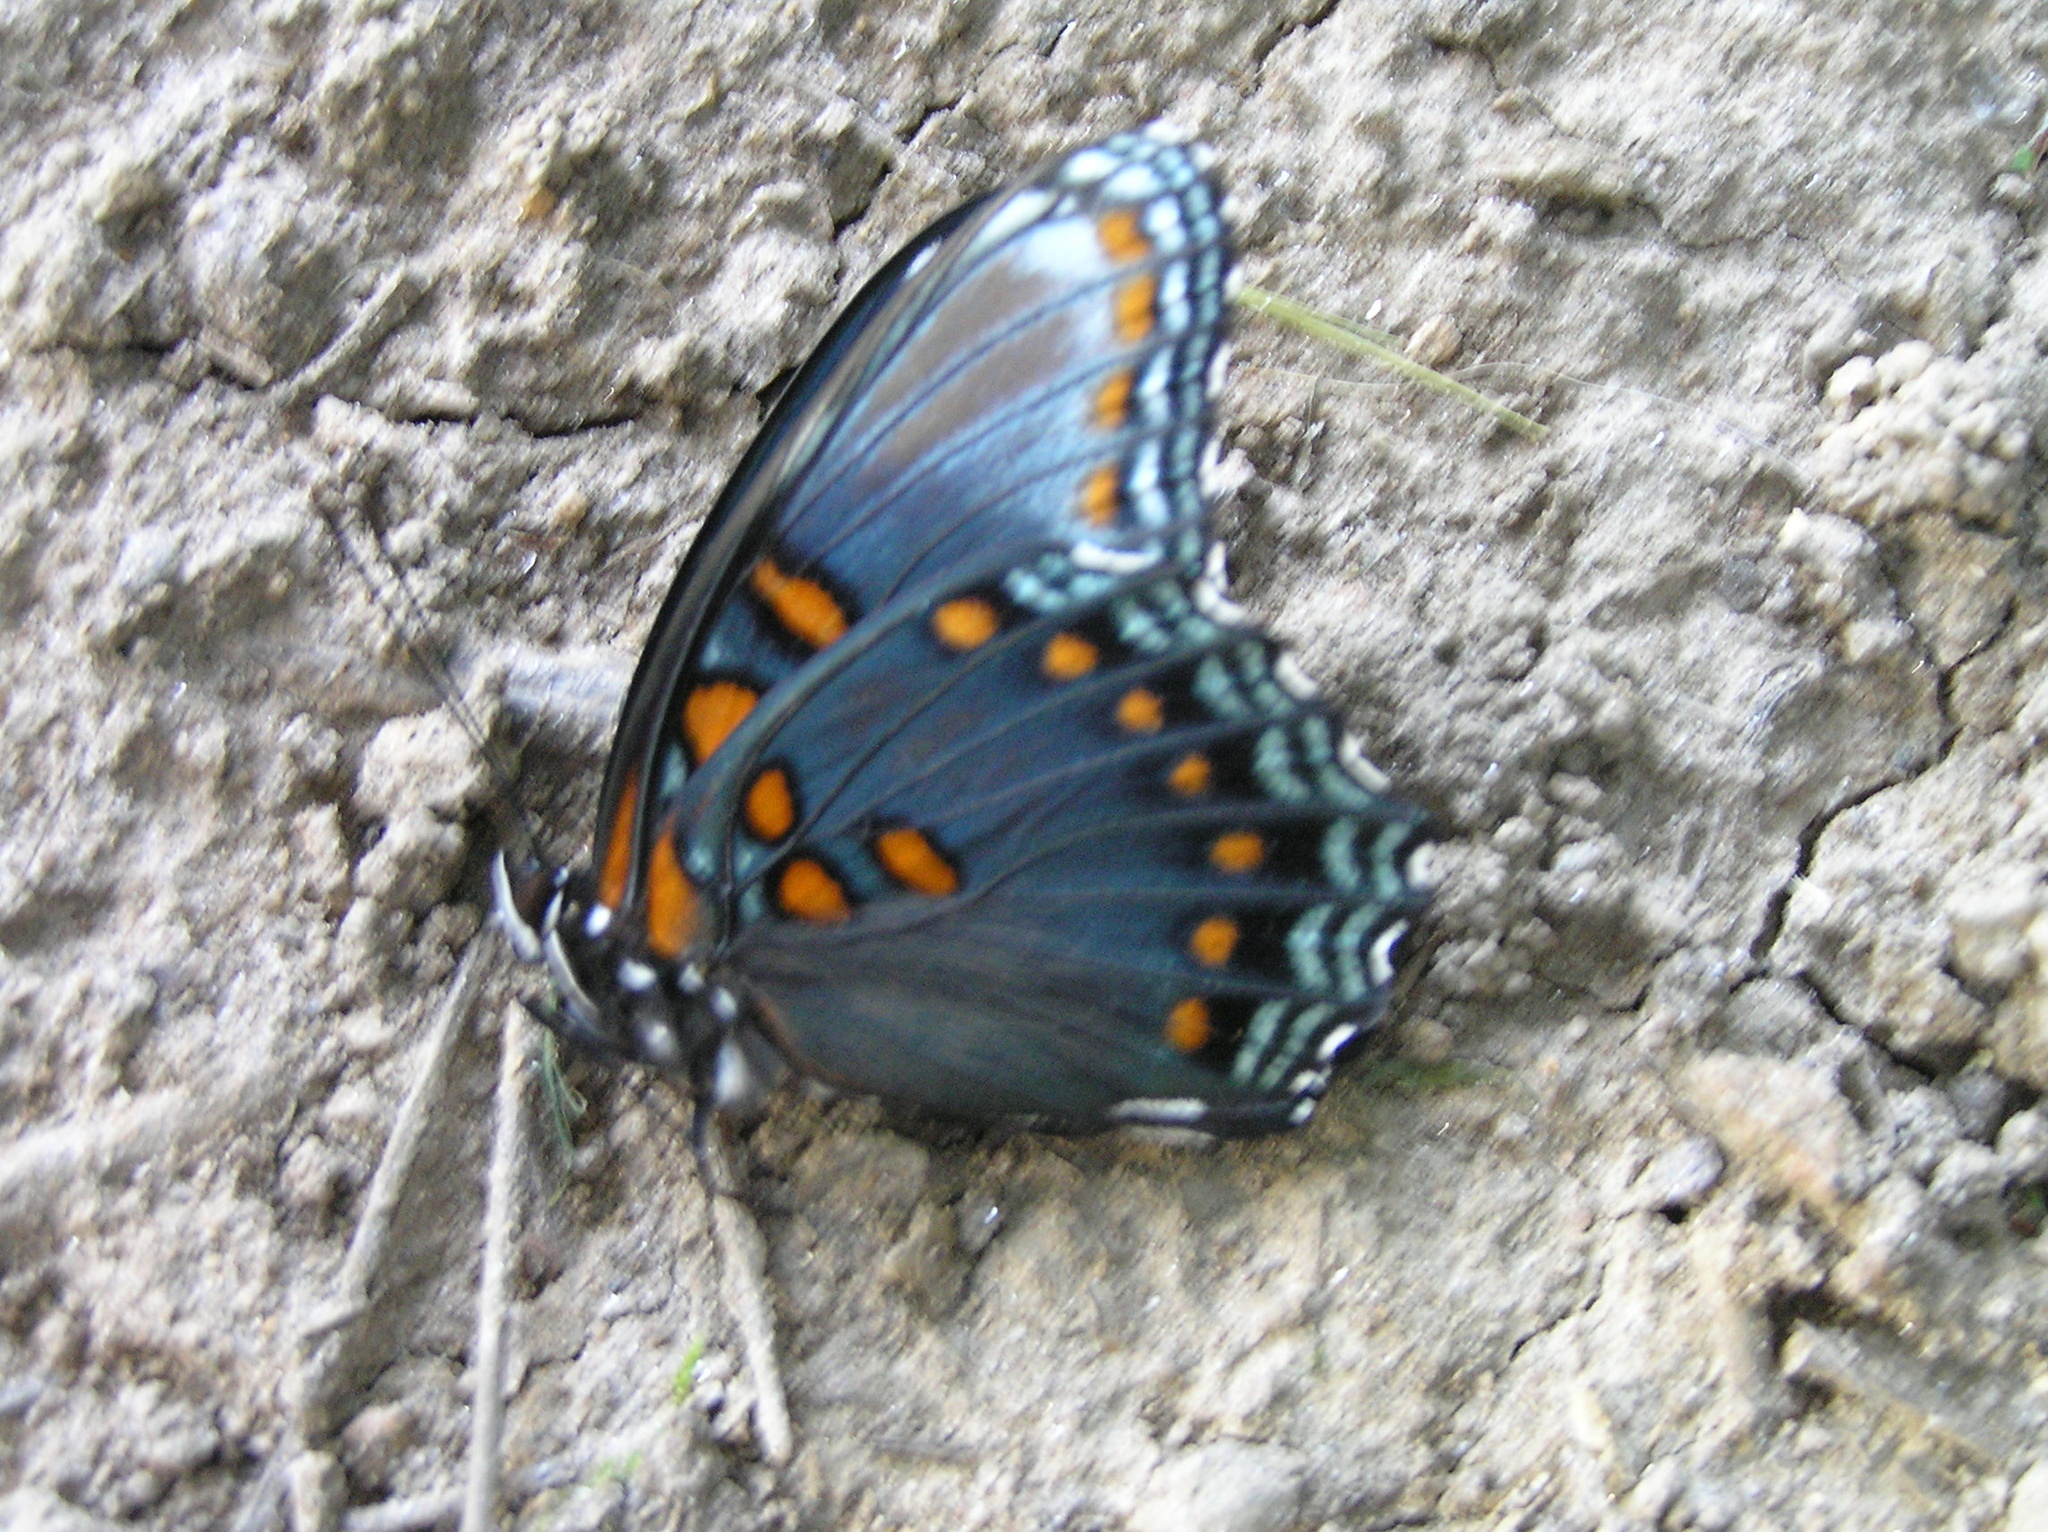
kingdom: Animalia
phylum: Arthropoda
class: Insecta
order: Lepidoptera
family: Nymphalidae
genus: Limenitis
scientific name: Limenitis arthemis
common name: Red-spotted admiral
